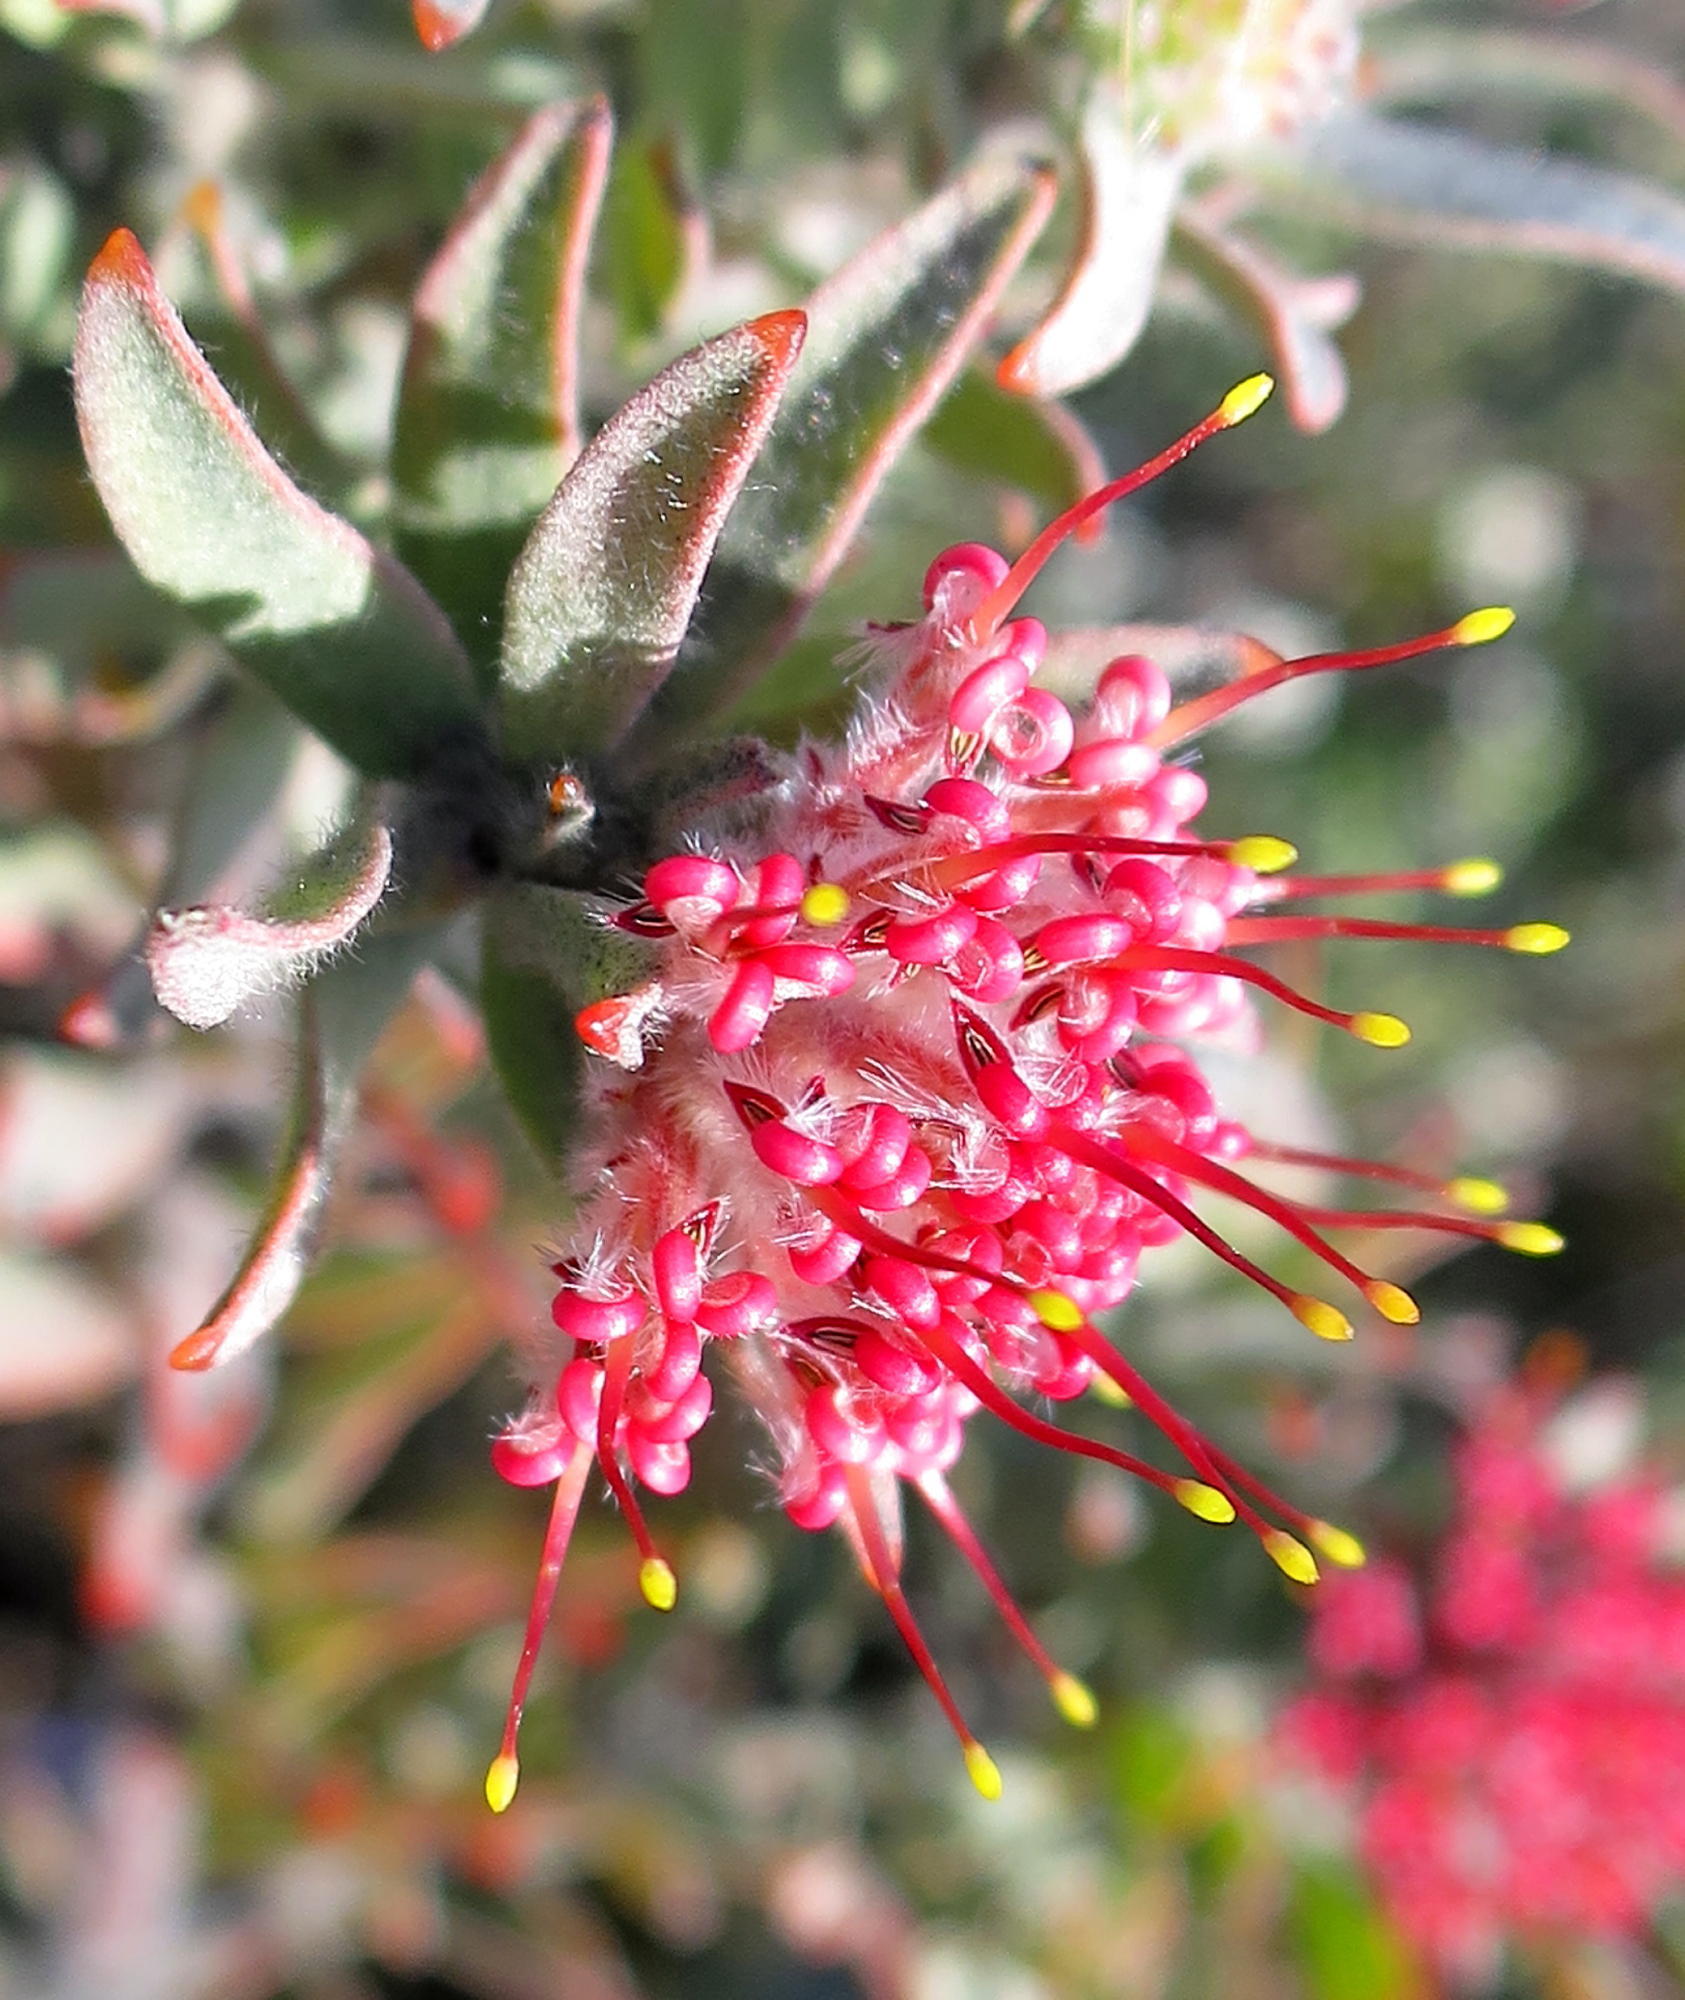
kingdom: Plantae
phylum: Tracheophyta
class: Magnoliopsida
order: Proteales
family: Proteaceae
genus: Leucospermum
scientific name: Leucospermum wittebergense
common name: Swartberg pincushion
